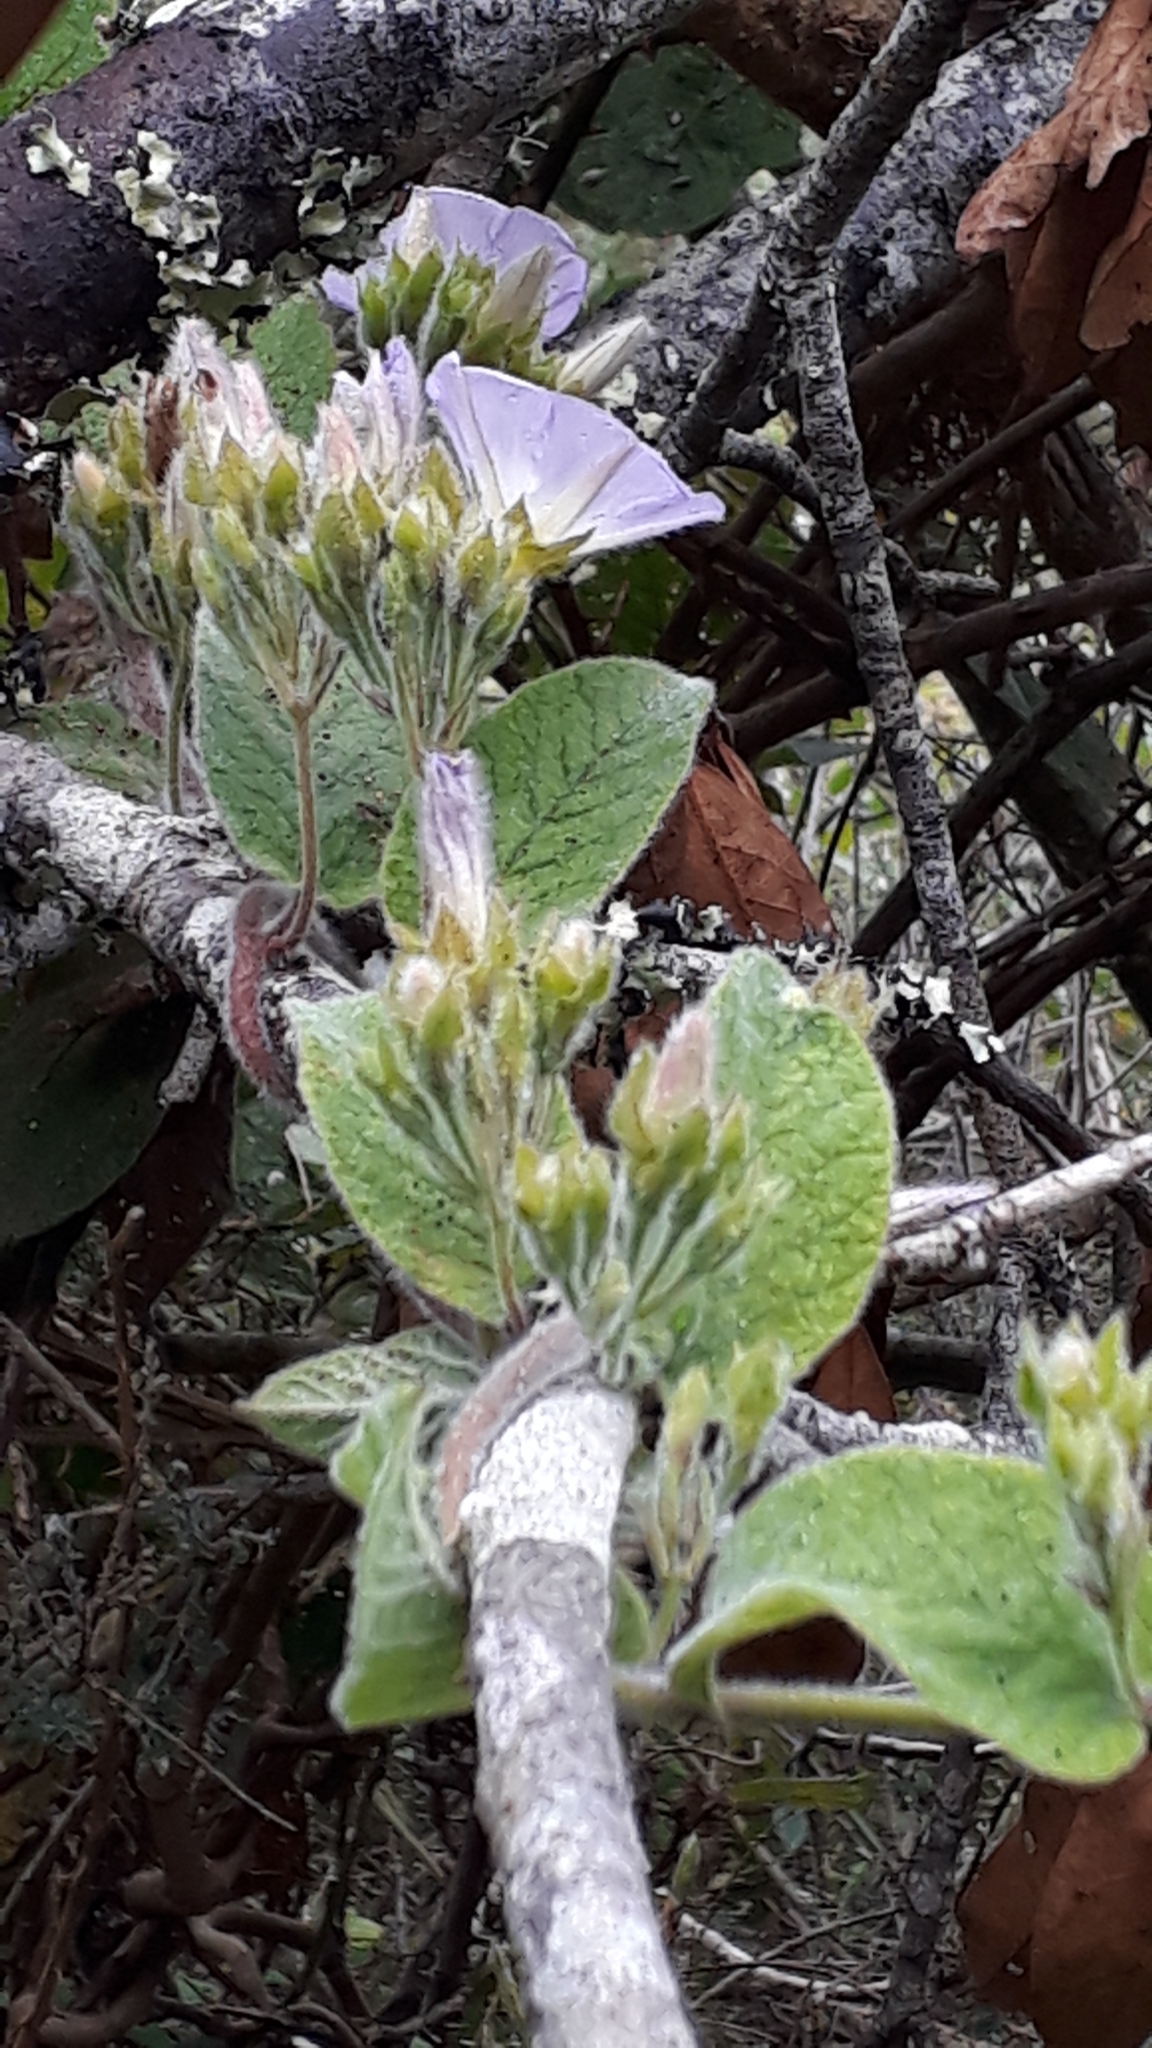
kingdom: Plantae
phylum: Tracheophyta
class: Magnoliopsida
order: Solanales
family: Convolvulaceae
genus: Convolvulus
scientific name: Convolvulus canariensis
